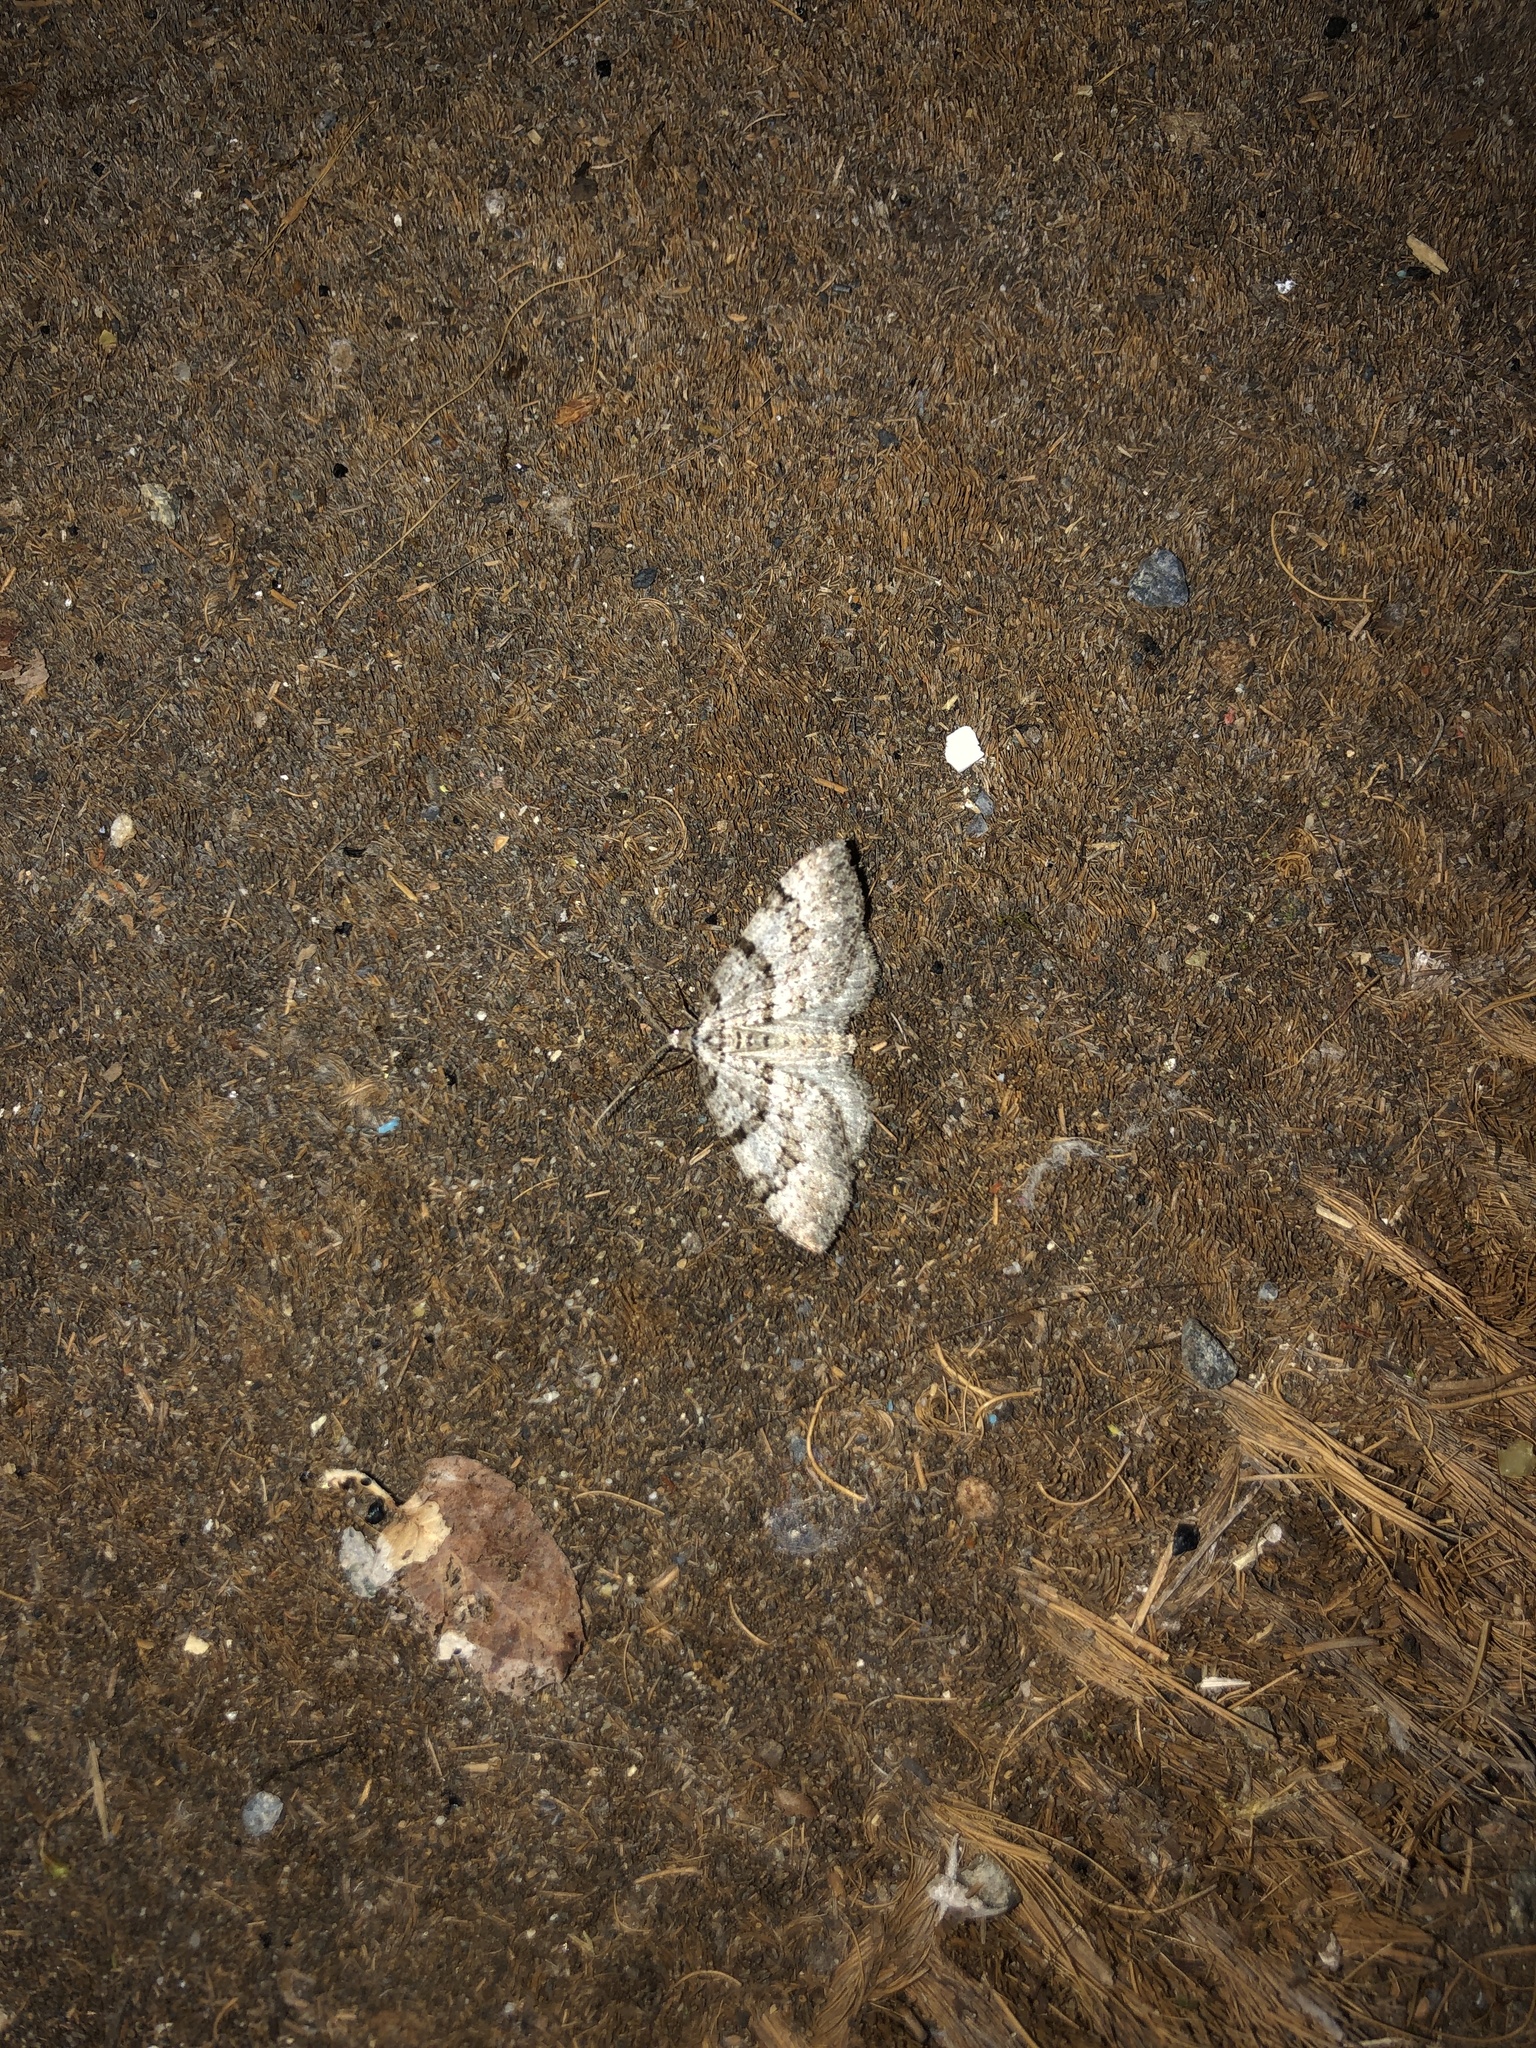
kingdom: Animalia
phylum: Arthropoda
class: Insecta
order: Lepidoptera
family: Geometridae
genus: Perizoma
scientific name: Perizoma curvilinea
